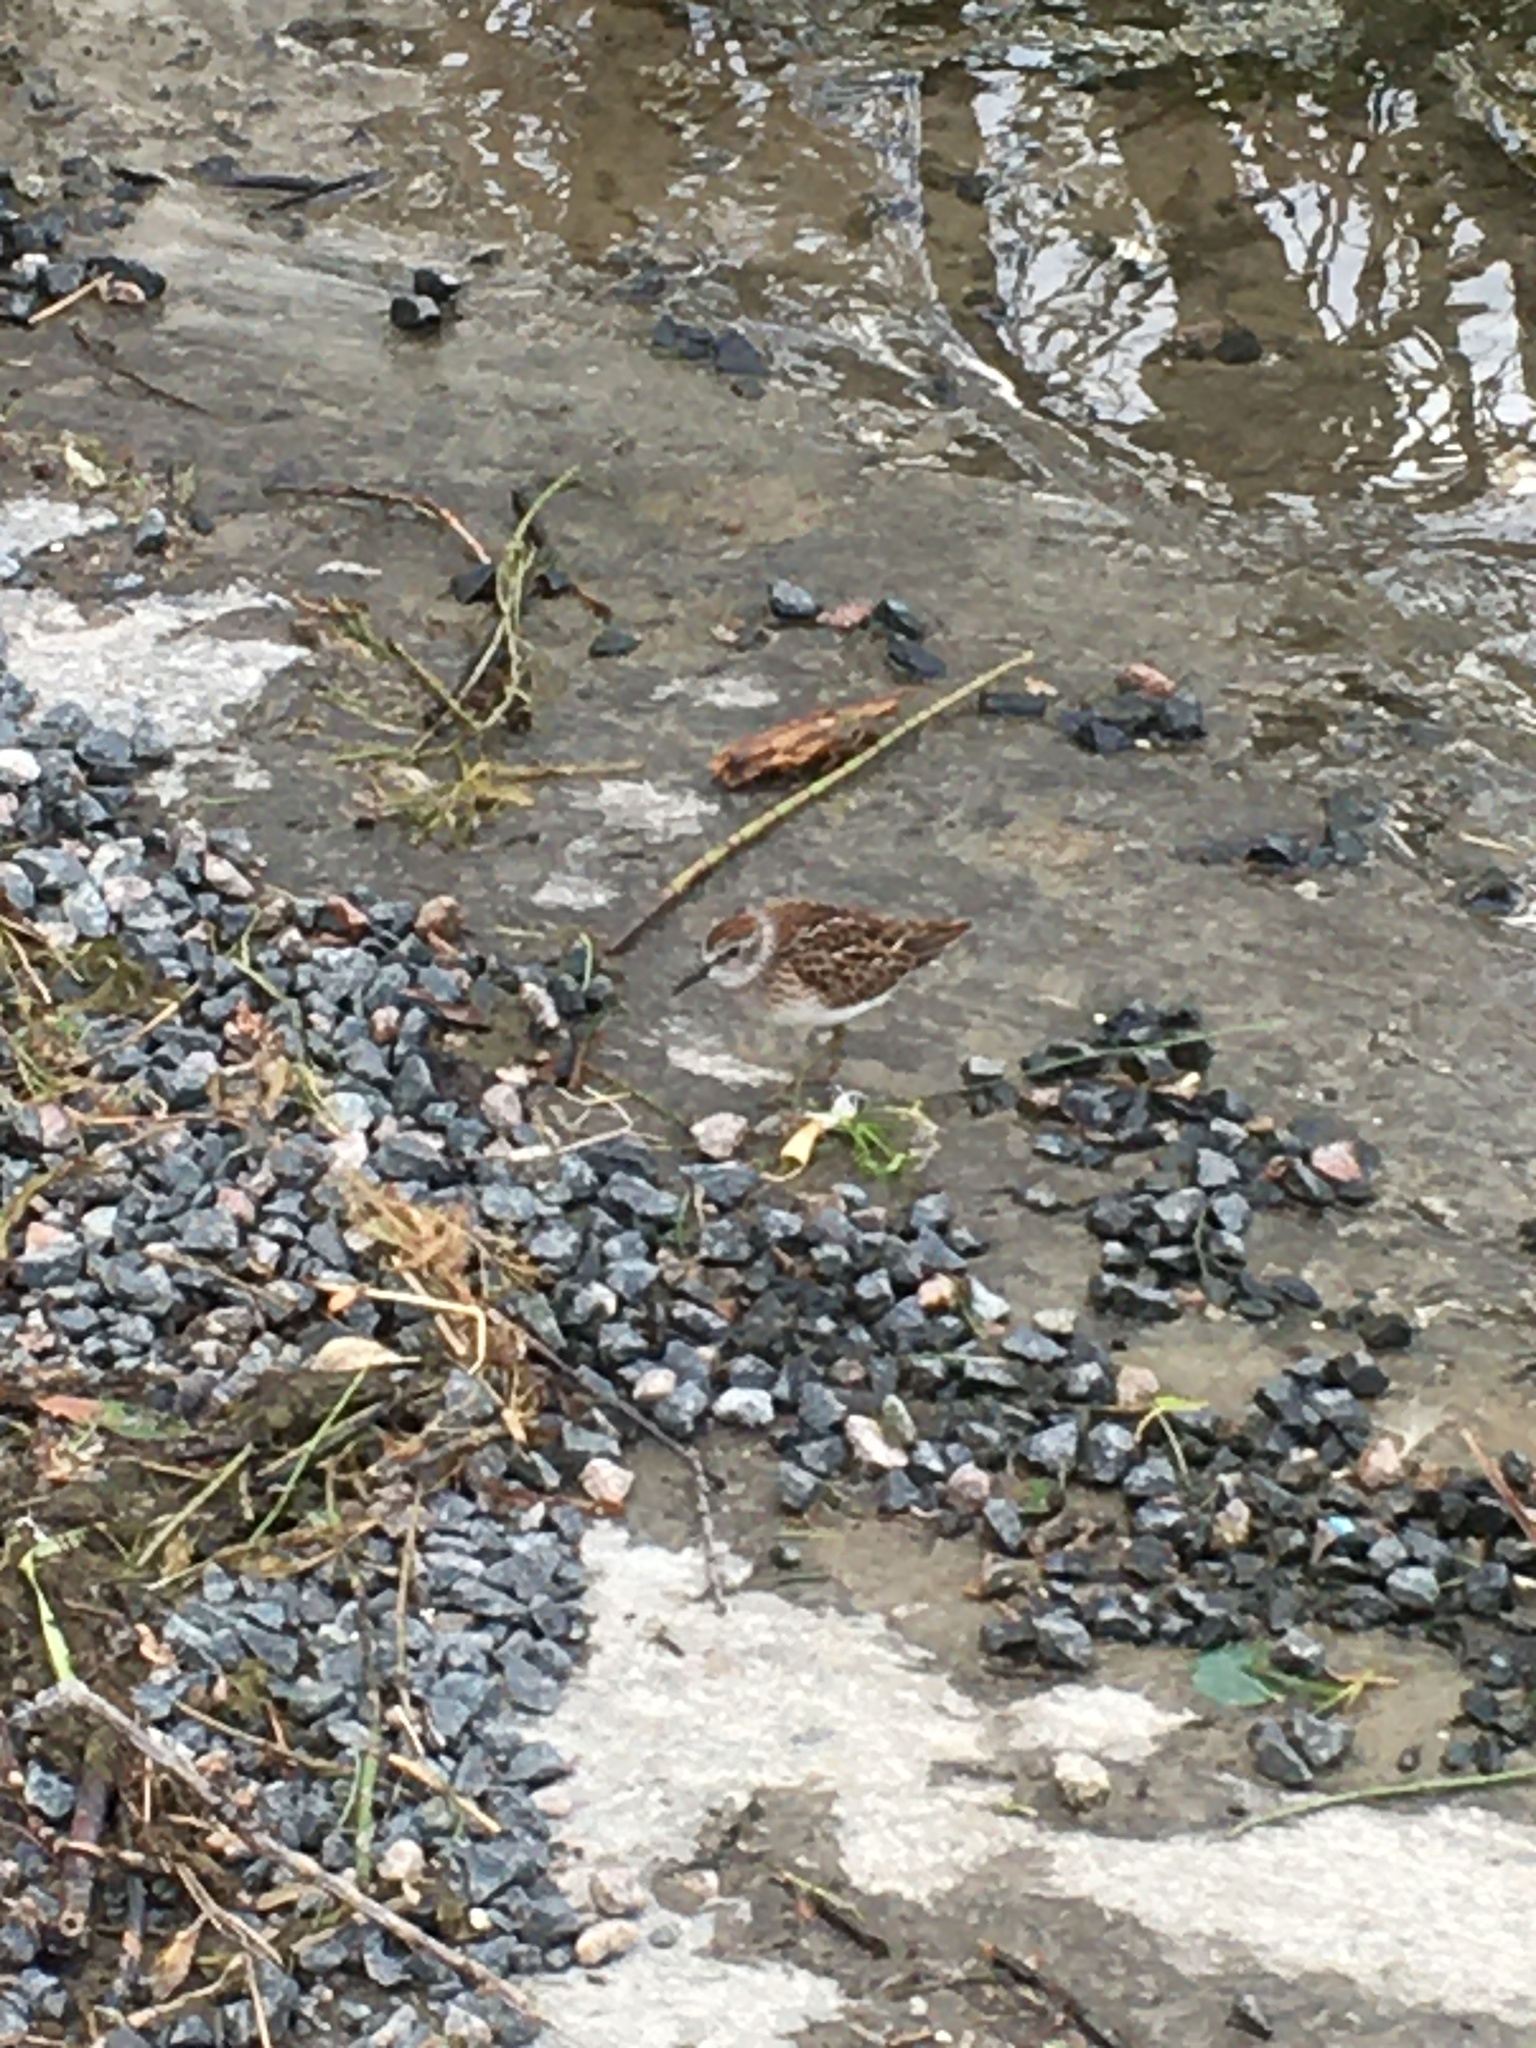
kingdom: Animalia
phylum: Chordata
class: Aves
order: Charadriiformes
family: Scolopacidae
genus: Calidris
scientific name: Calidris minutilla
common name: Least sandpiper
